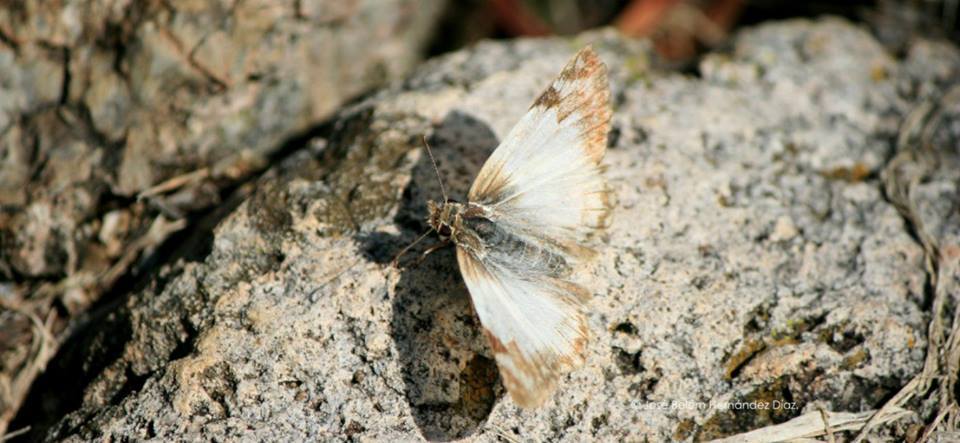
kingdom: Animalia
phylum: Arthropoda
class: Insecta
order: Lepidoptera
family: Hesperiidae
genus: Heliopetes
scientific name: Heliopetes laviana
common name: Laviana white-skipper
